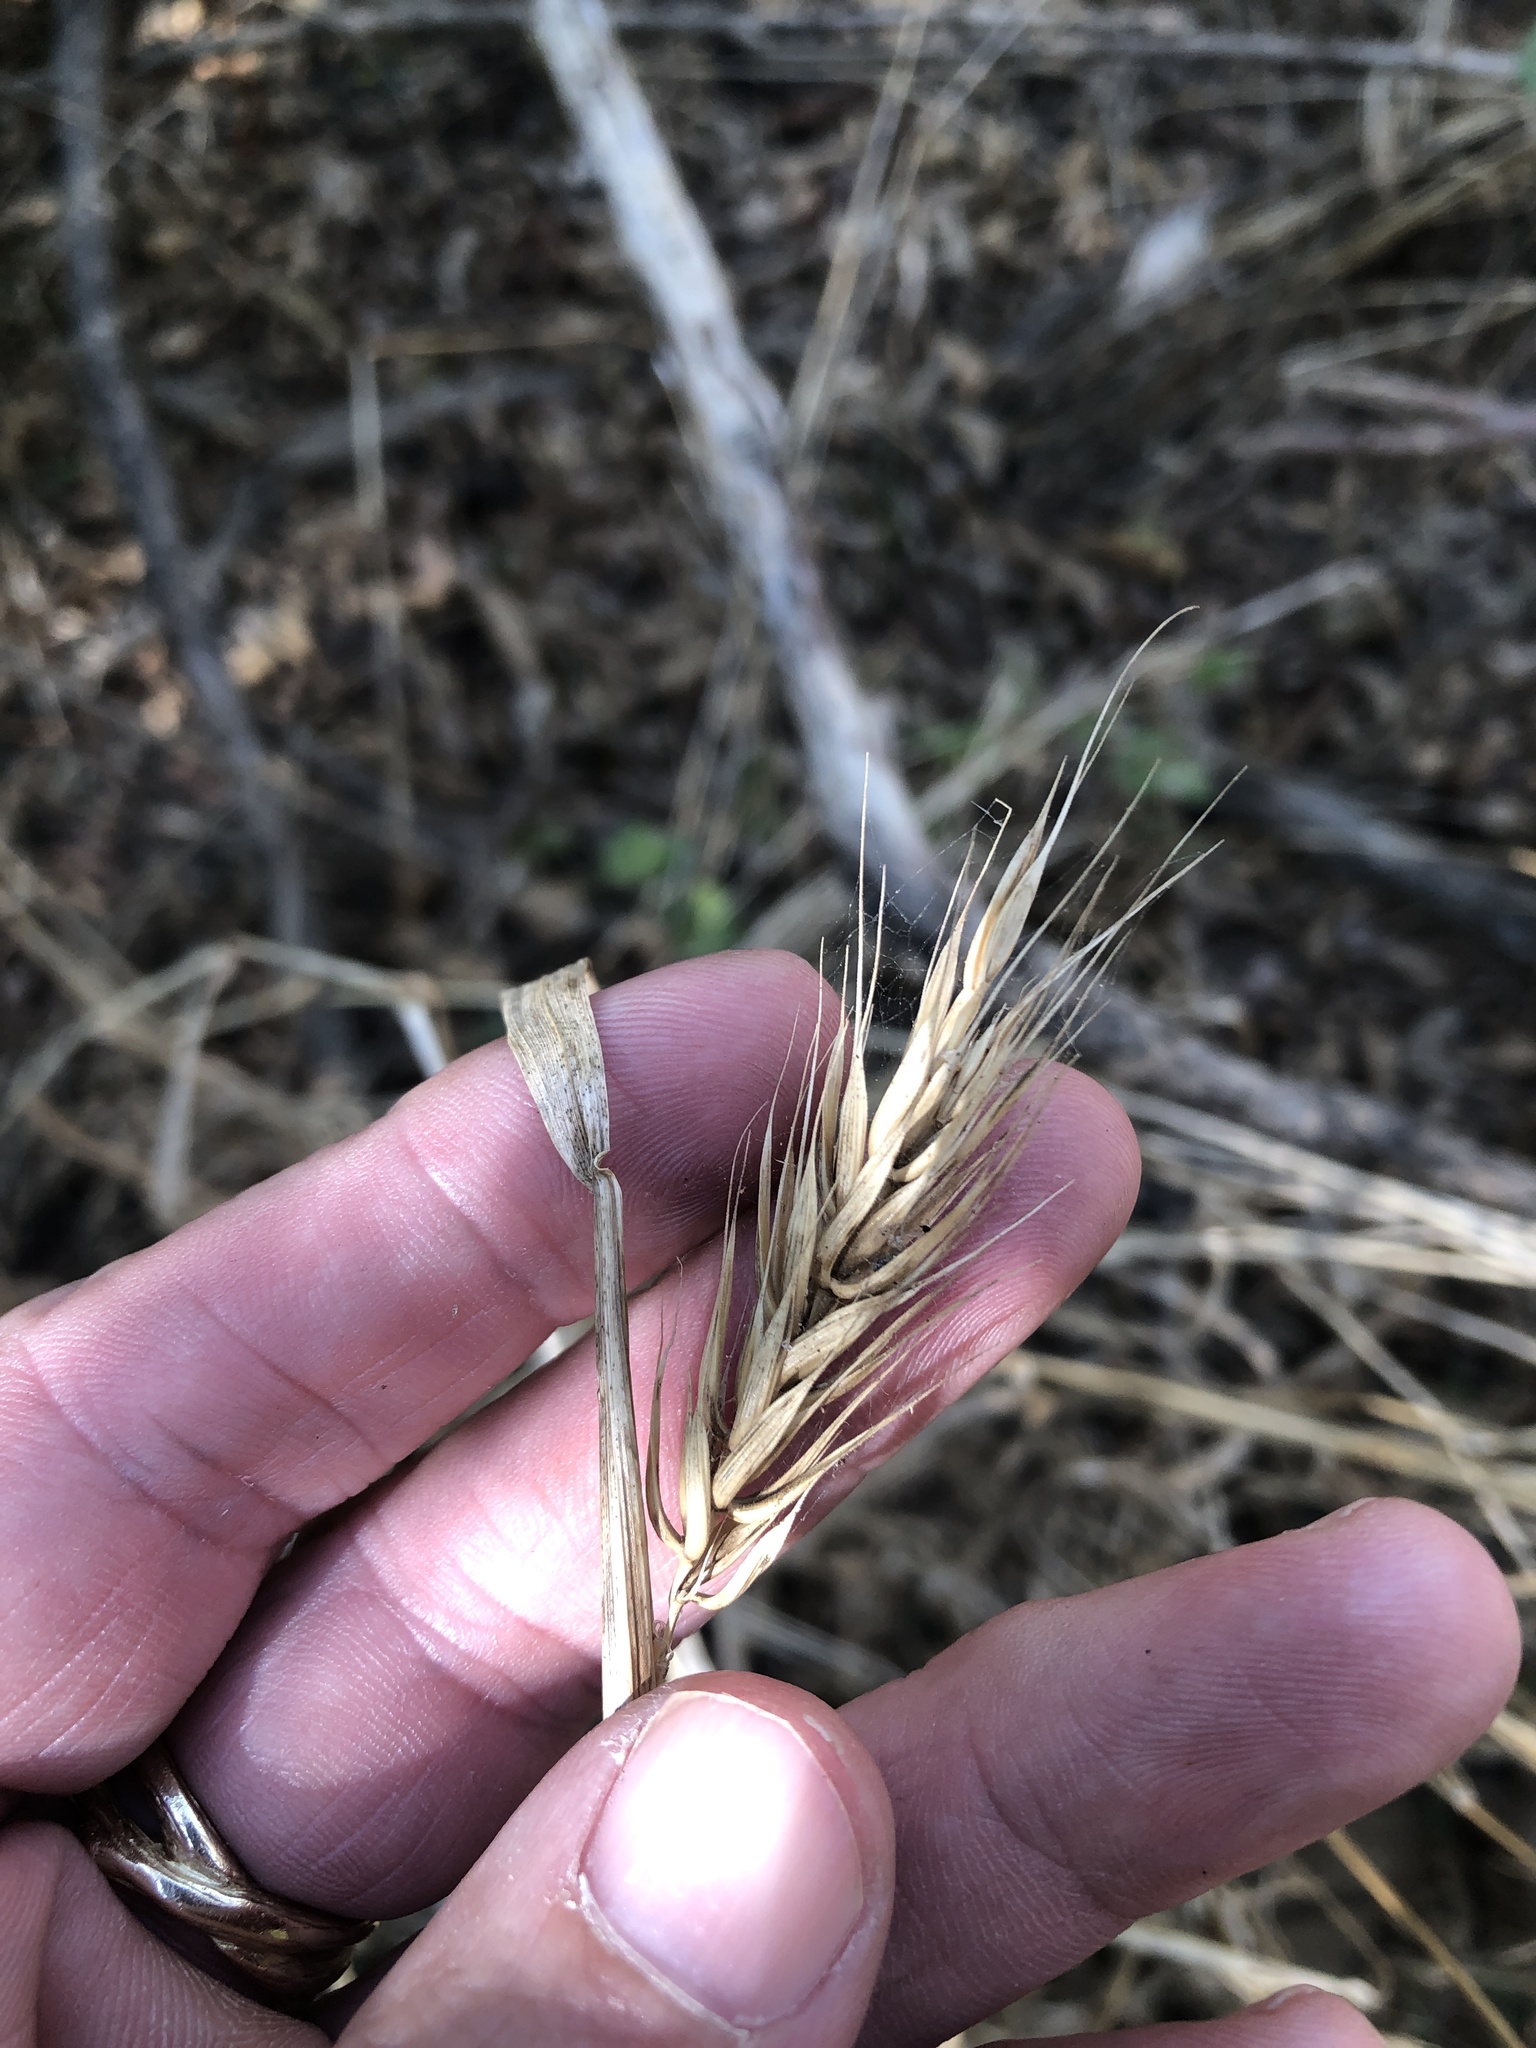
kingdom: Plantae
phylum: Tracheophyta
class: Liliopsida
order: Poales
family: Poaceae
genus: Elymus
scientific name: Elymus virginicus
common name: Common eastern wildrye
